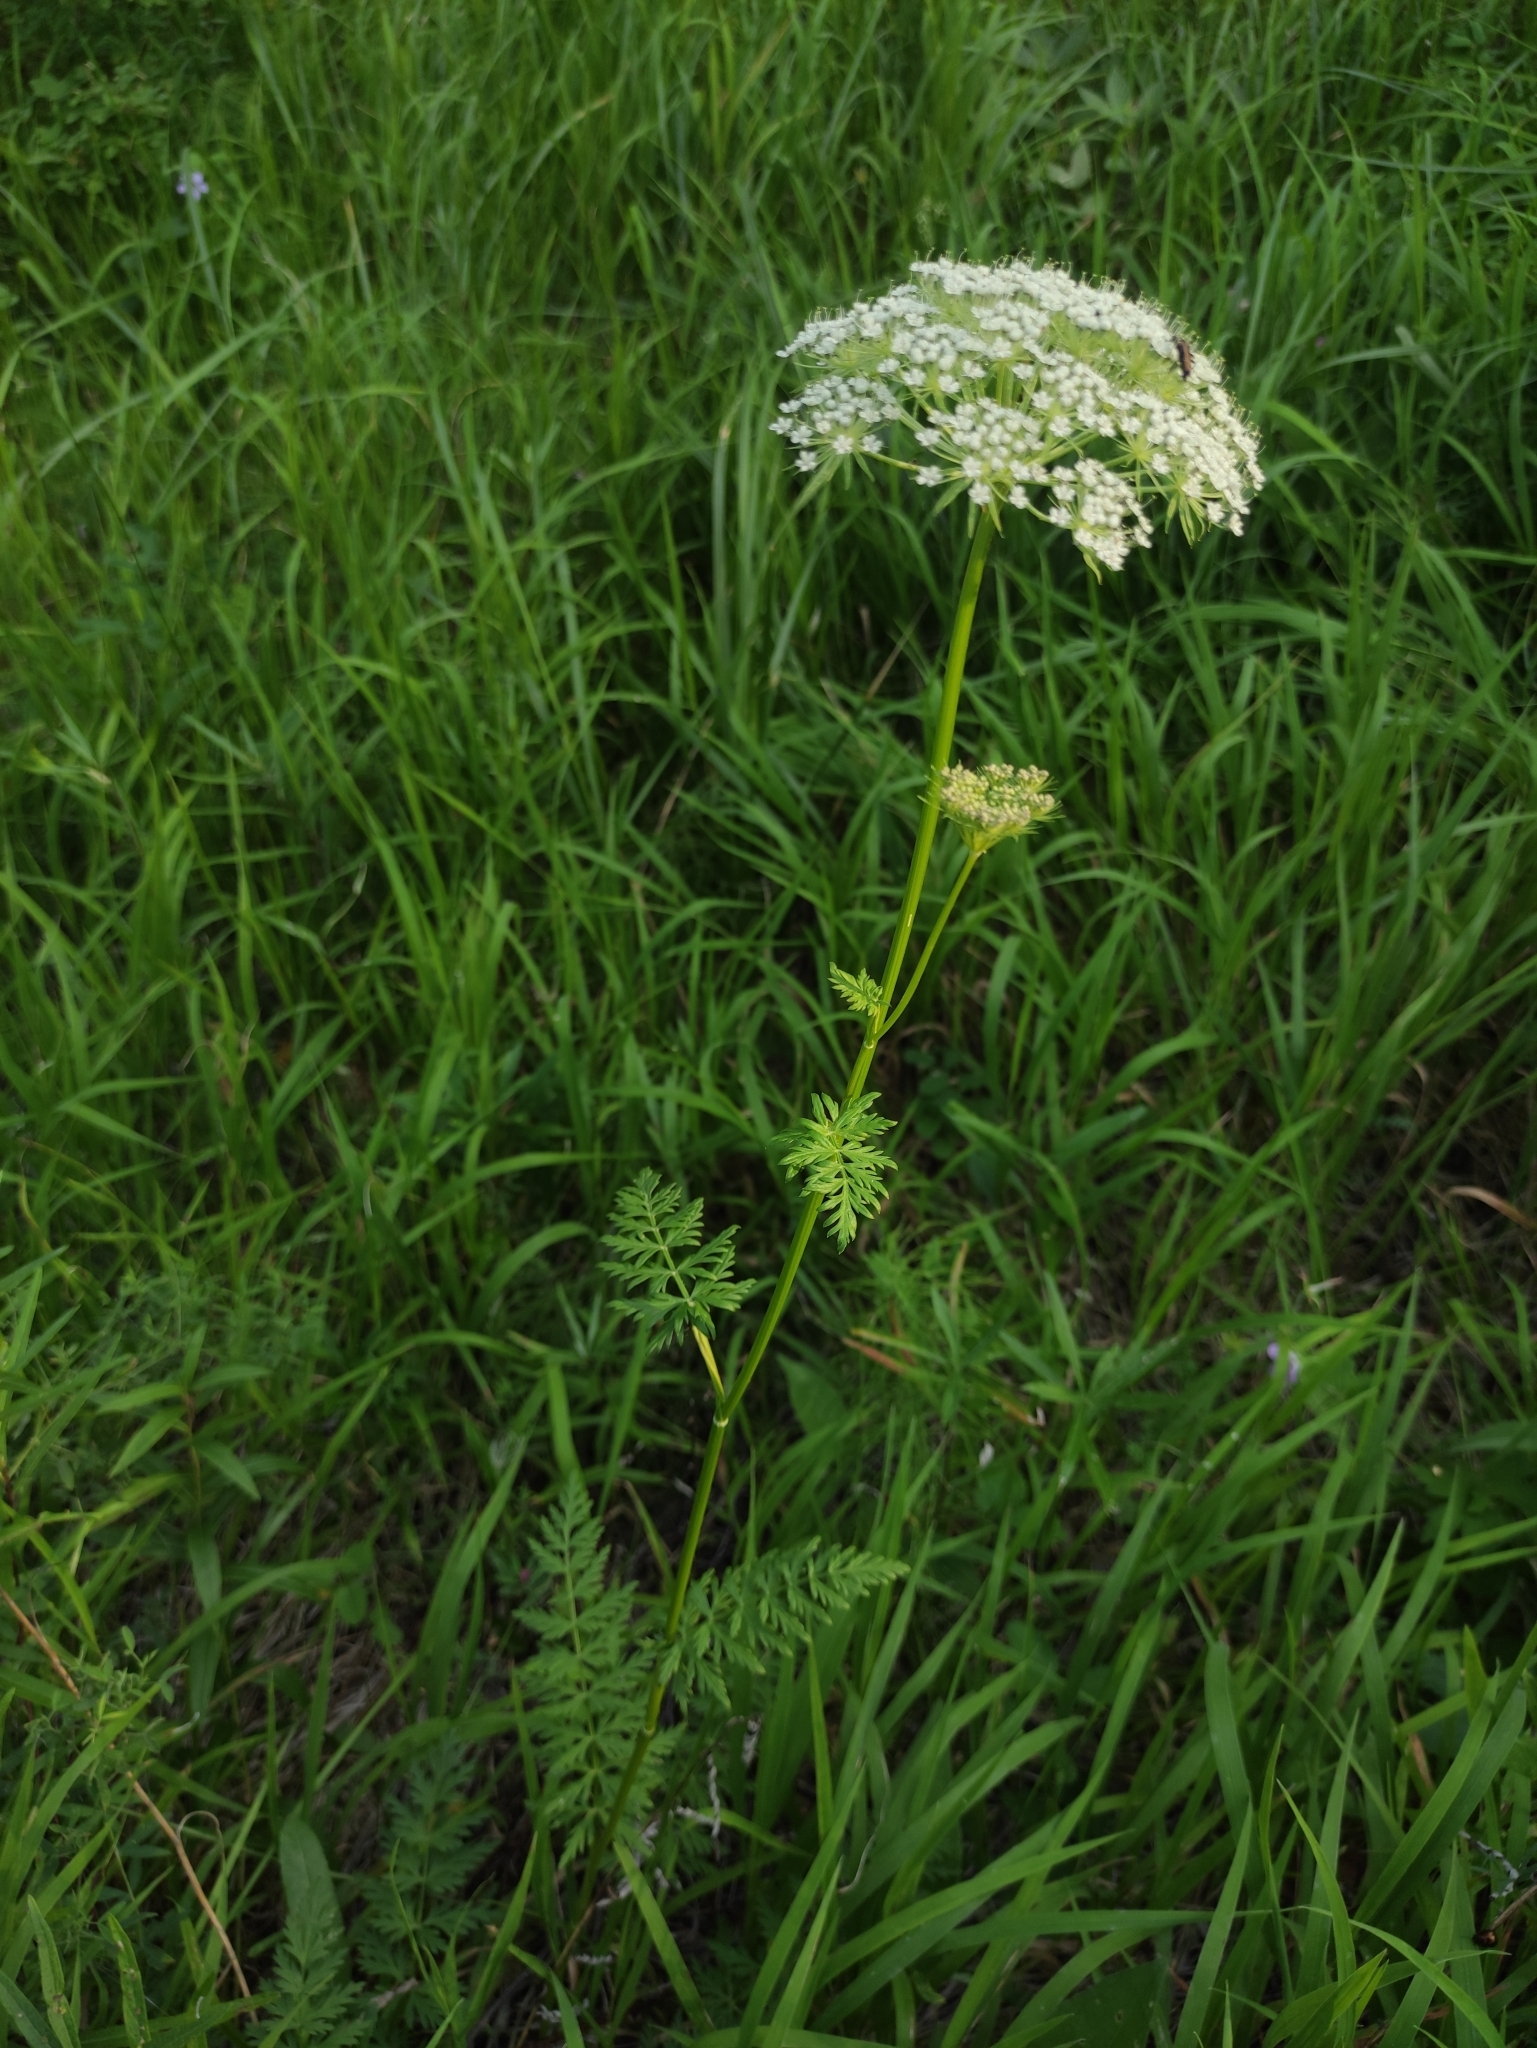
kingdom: Plantae
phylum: Tracheophyta
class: Magnoliopsida
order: Apiales
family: Apiaceae
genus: Seseli
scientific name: Seseli condensatum
